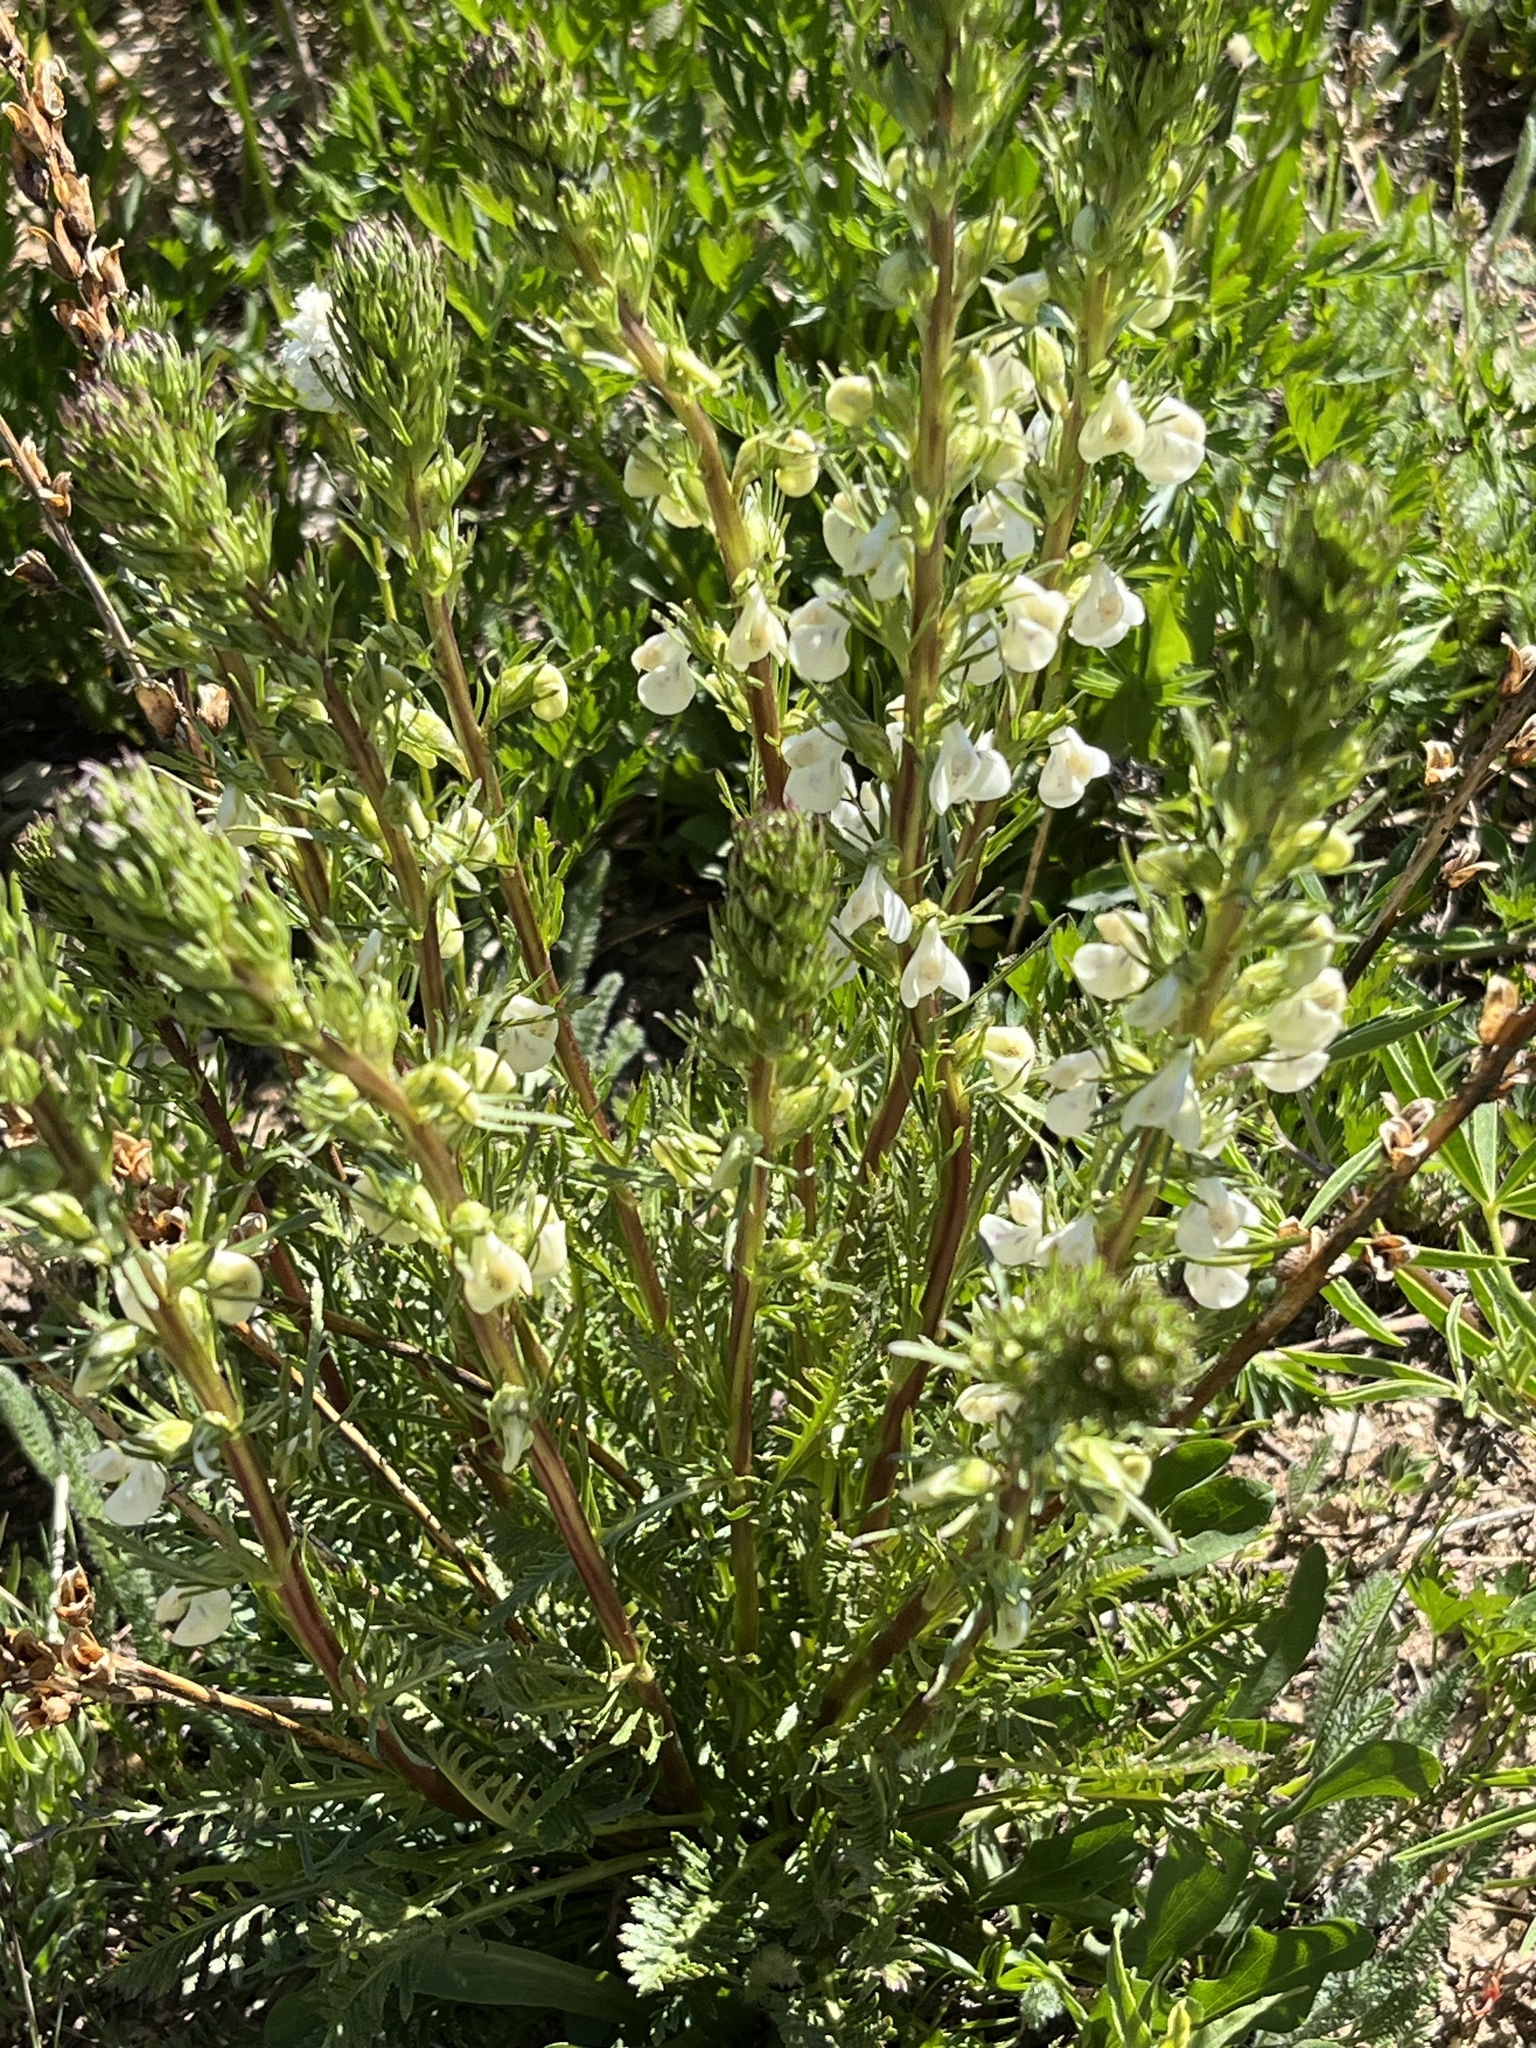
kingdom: Plantae
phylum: Tracheophyta
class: Magnoliopsida
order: Lamiales
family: Orobanchaceae
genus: Pedicularis
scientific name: Pedicularis contorta
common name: Coiled lousewort
